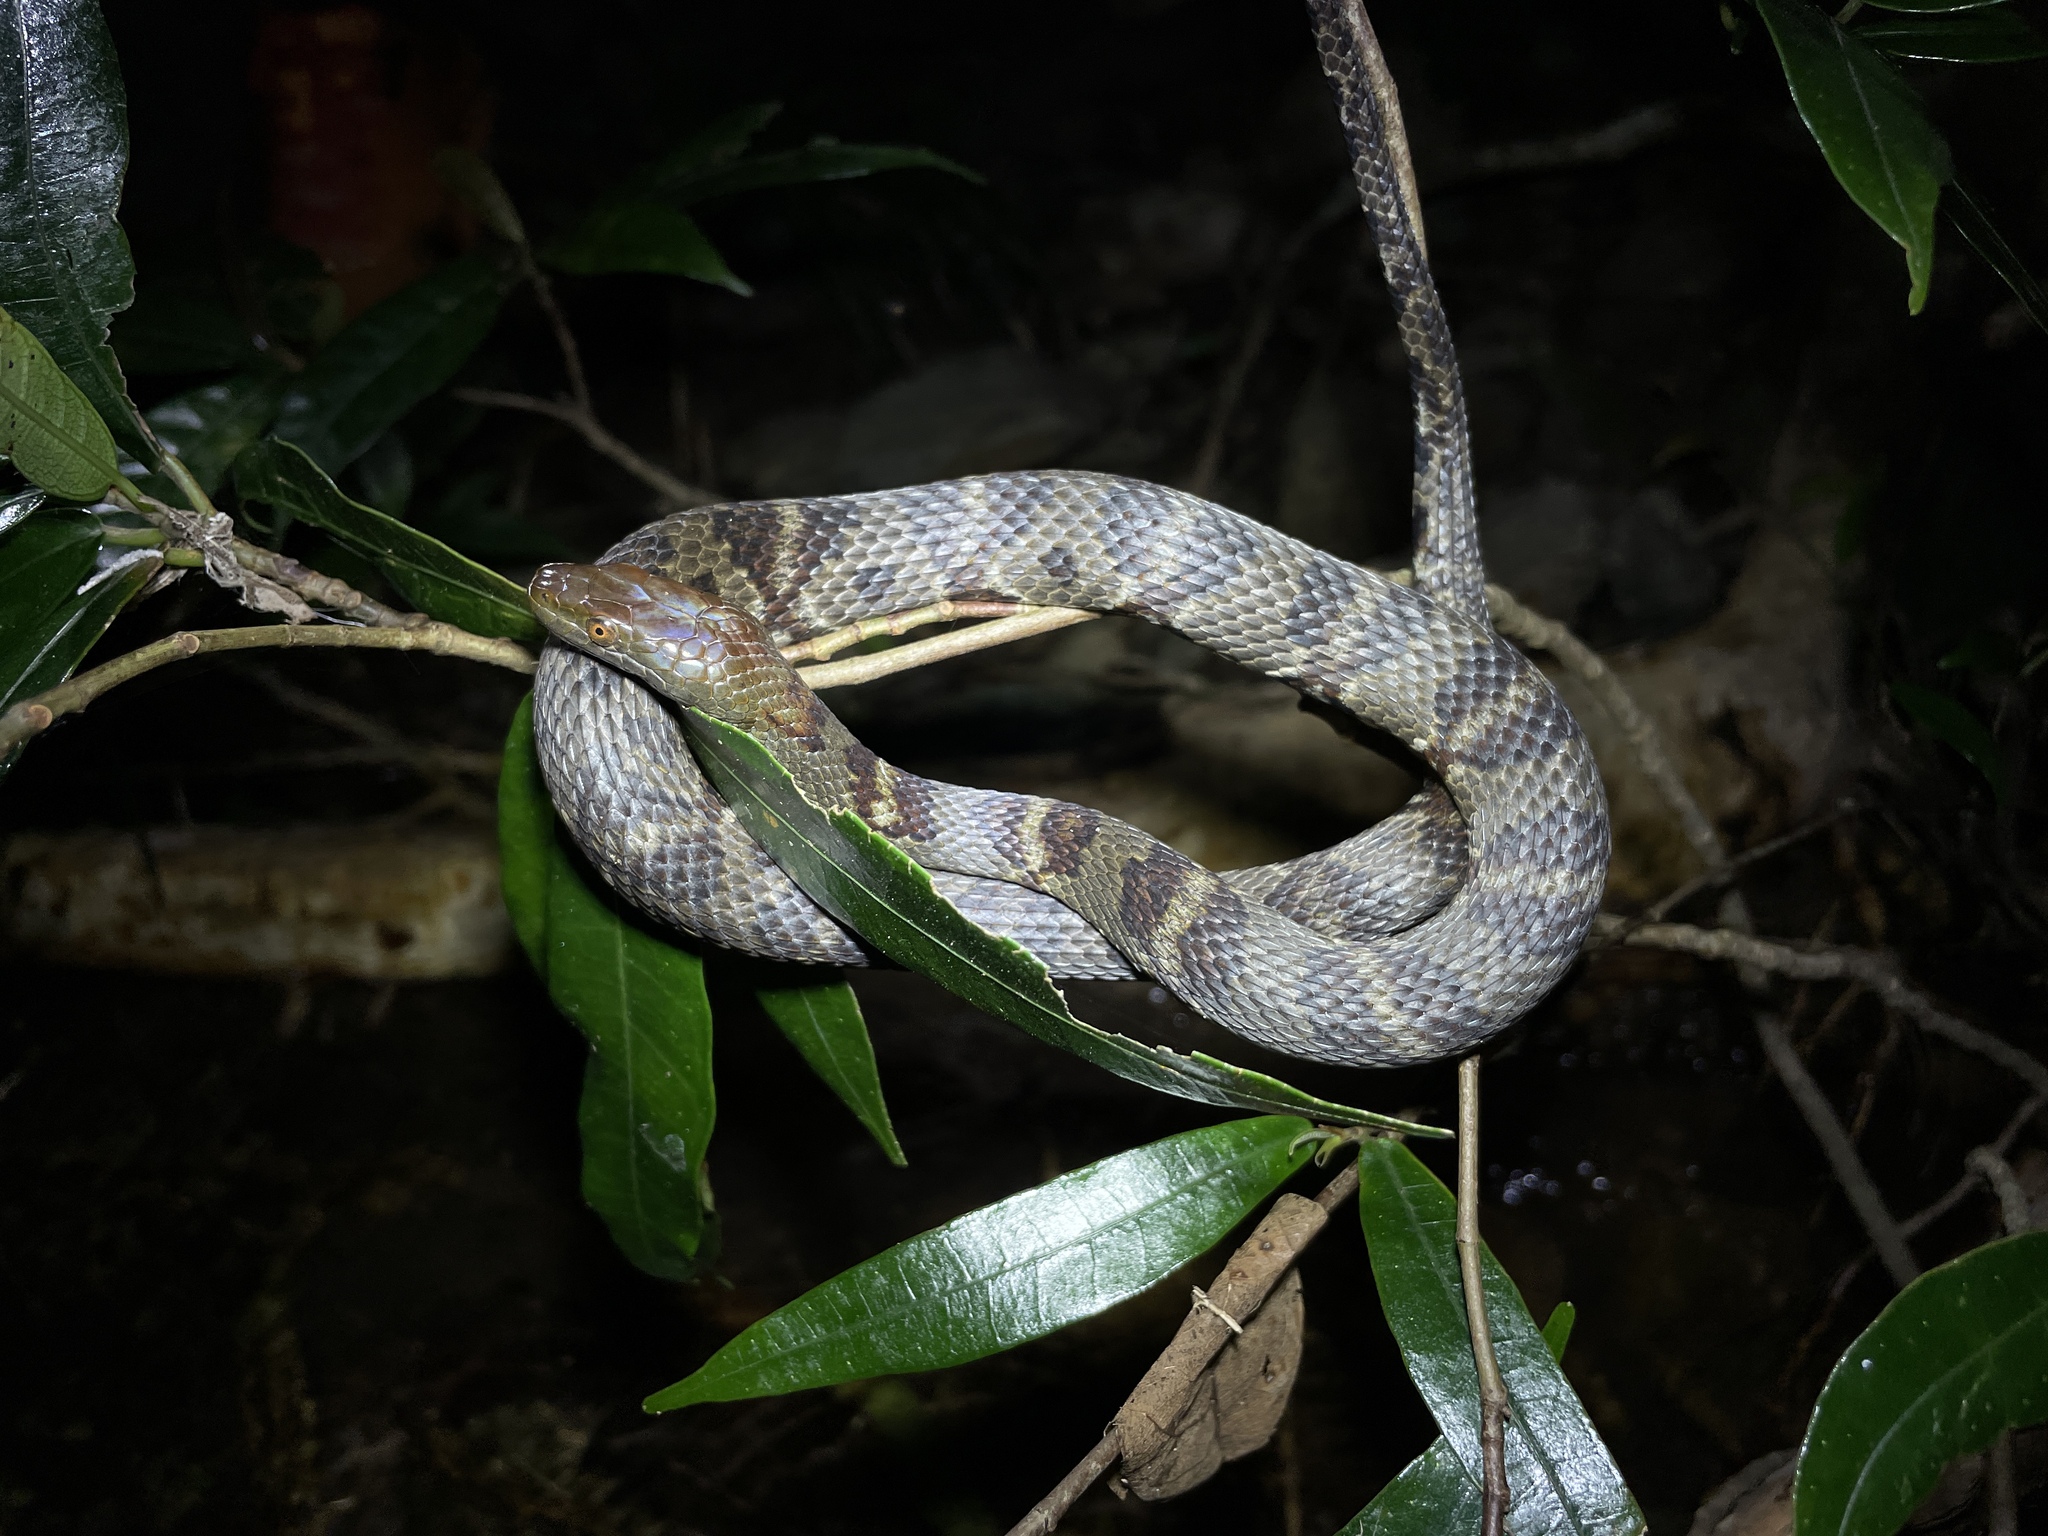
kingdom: Animalia
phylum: Chordata
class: Squamata
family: Colubridae
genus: Trimerodytes
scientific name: Trimerodytes aequifasciatus
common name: Asiatic water snake
